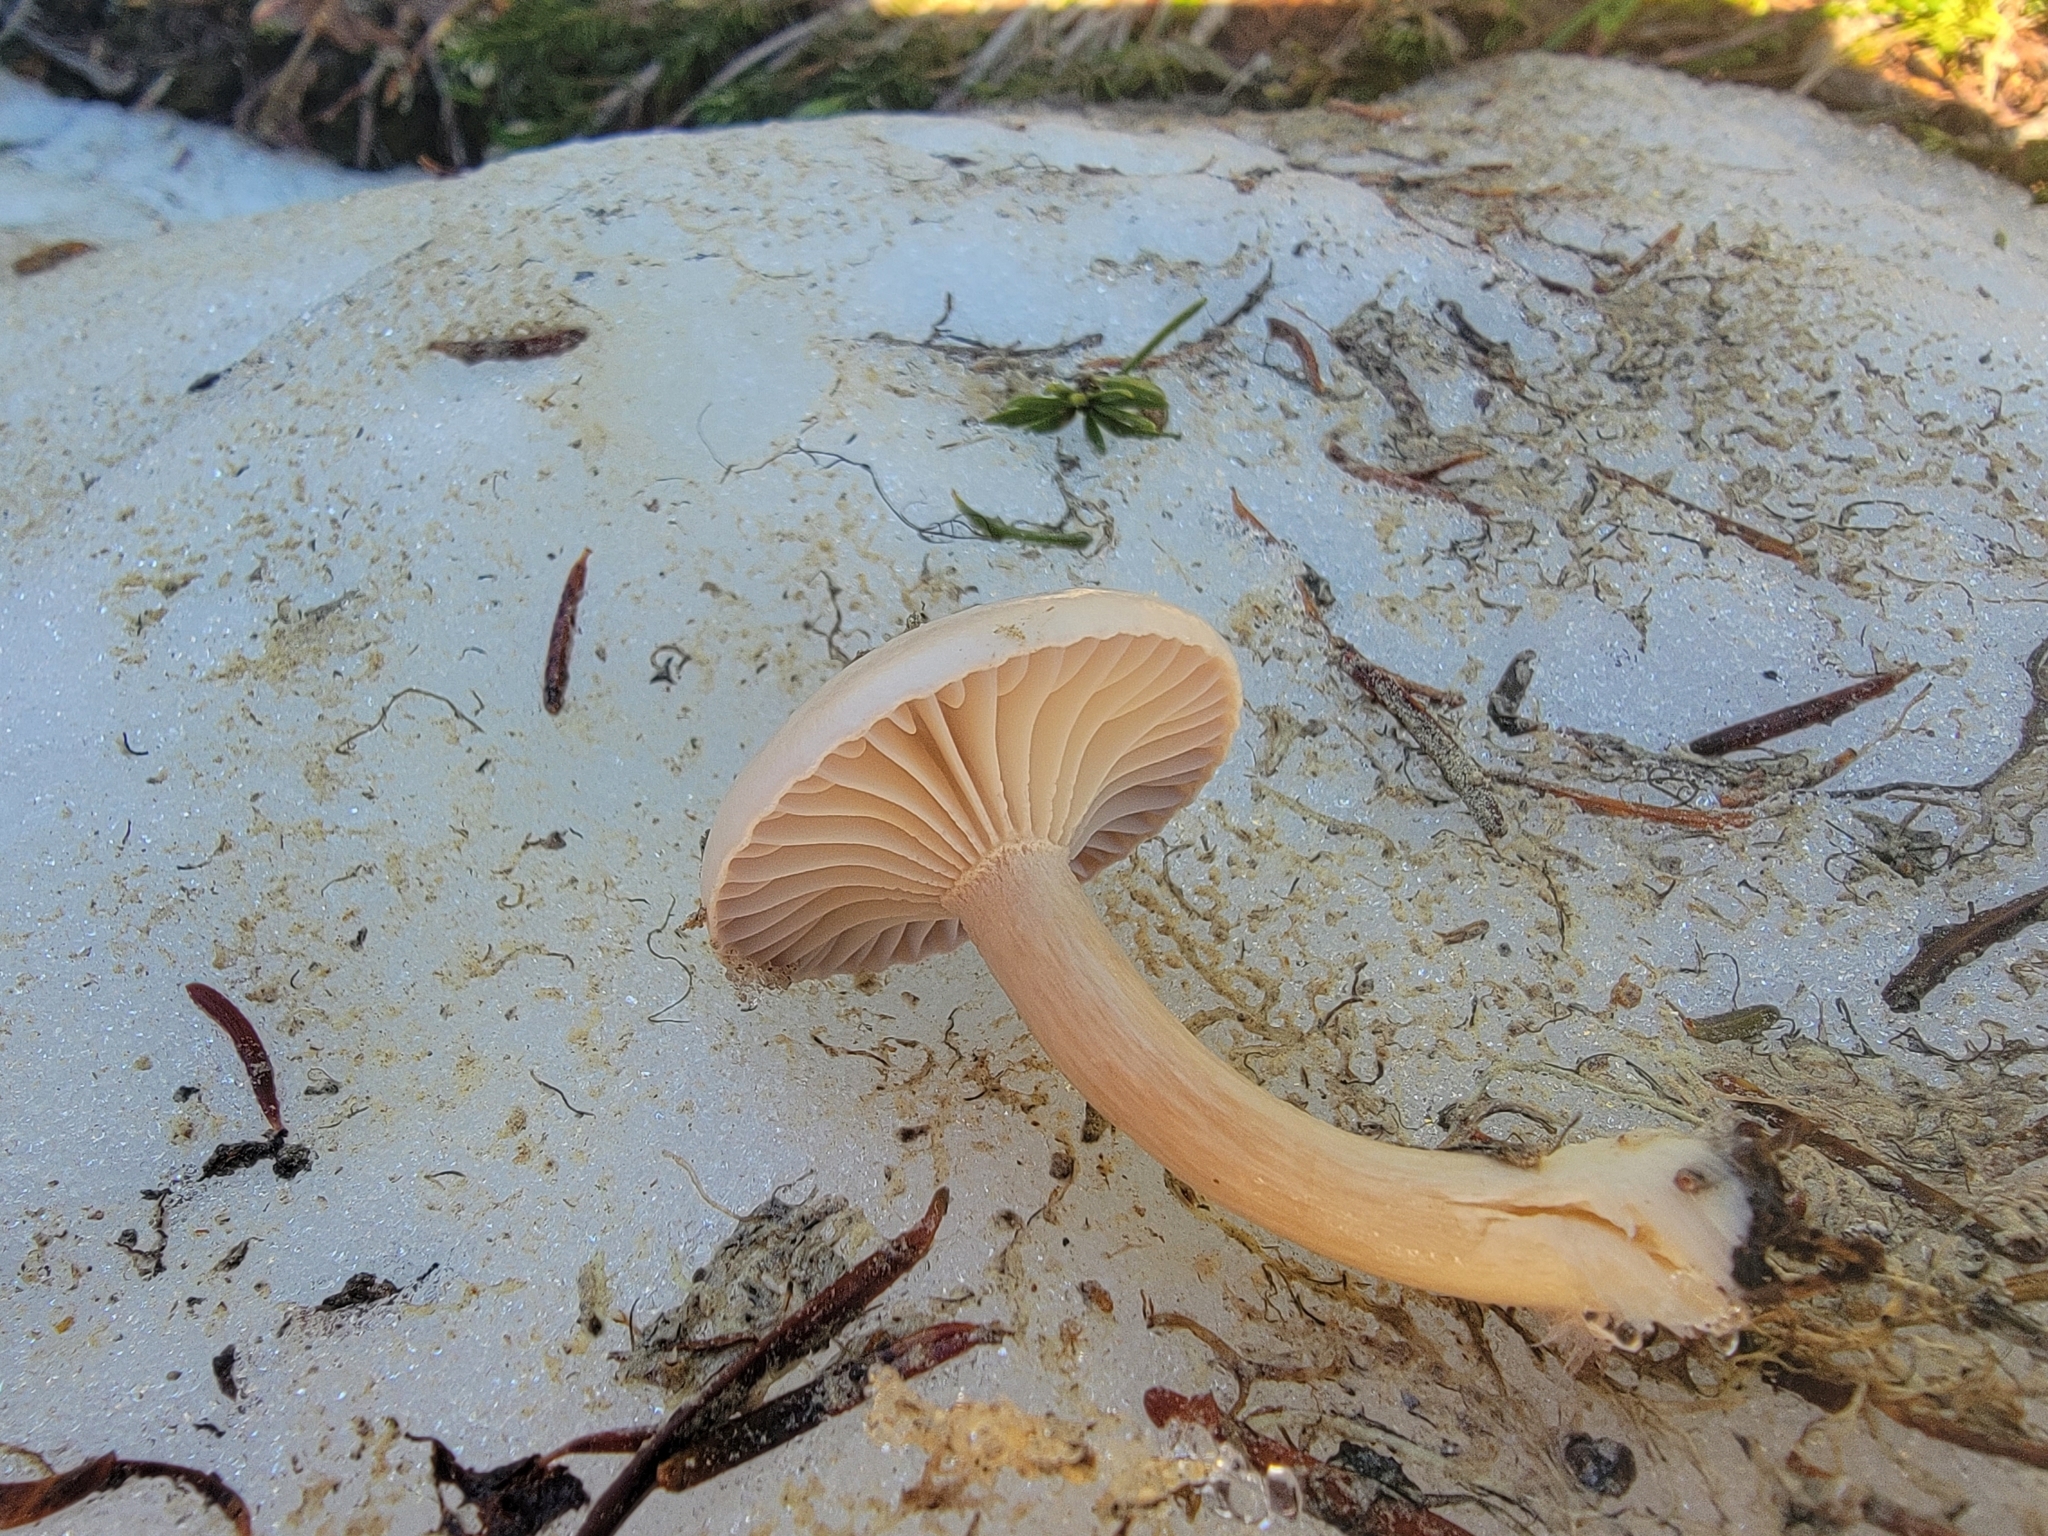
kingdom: Fungi
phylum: Basidiomycota
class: Agaricomycetes
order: Agaricales
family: Hygrophoraceae
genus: Hygrophorus
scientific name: Hygrophorus goetzei
